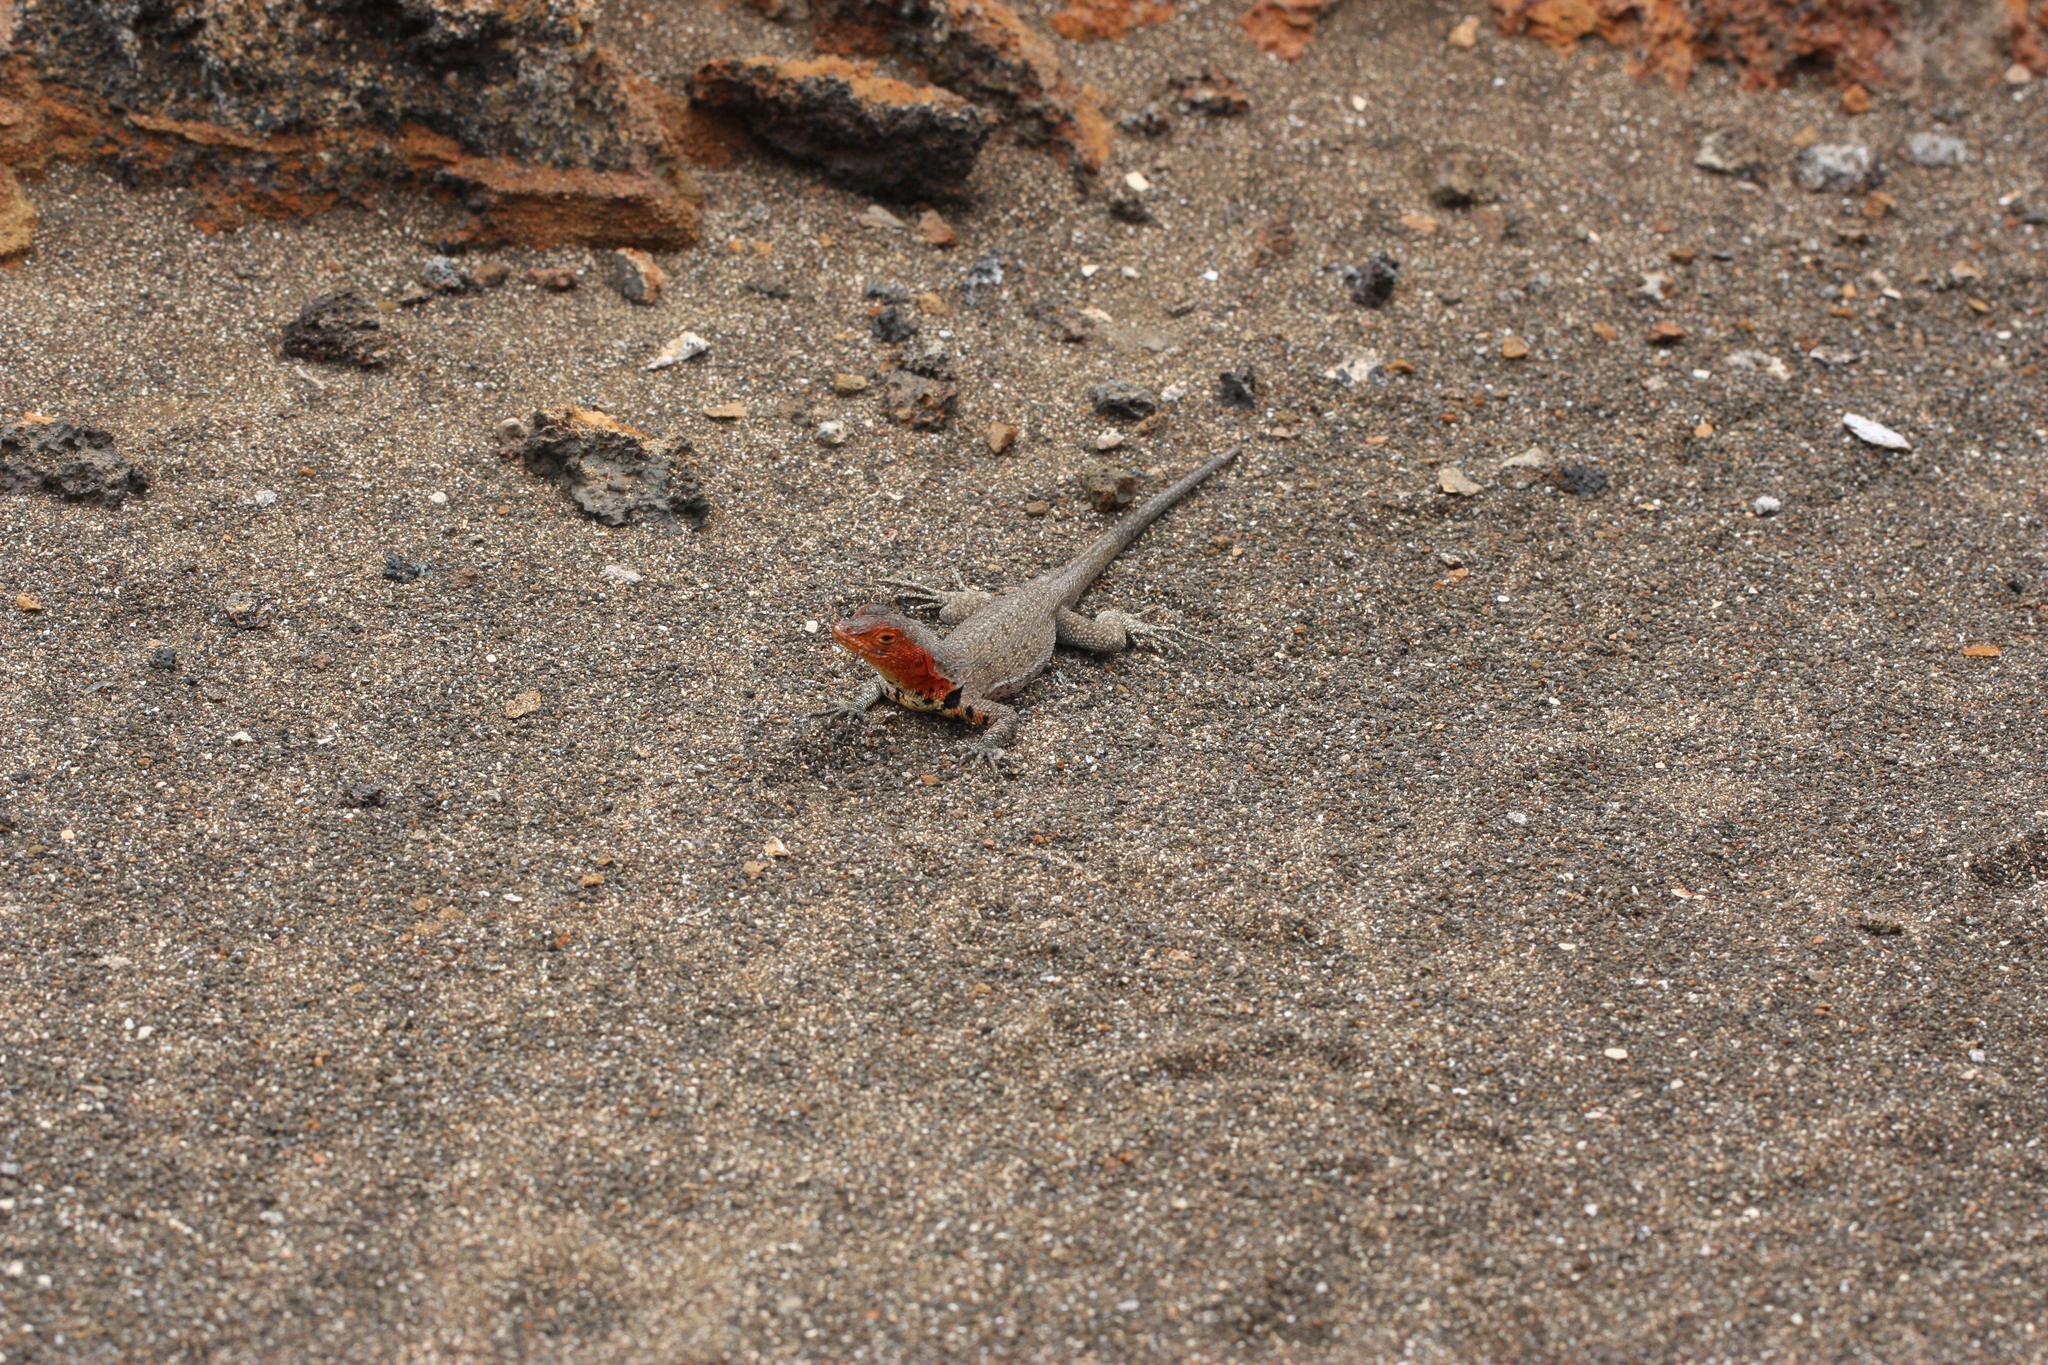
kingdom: Animalia
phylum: Chordata
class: Squamata
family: Tropiduridae
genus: Microlophus
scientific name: Microlophus jacobii
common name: Santiago lava lizard
